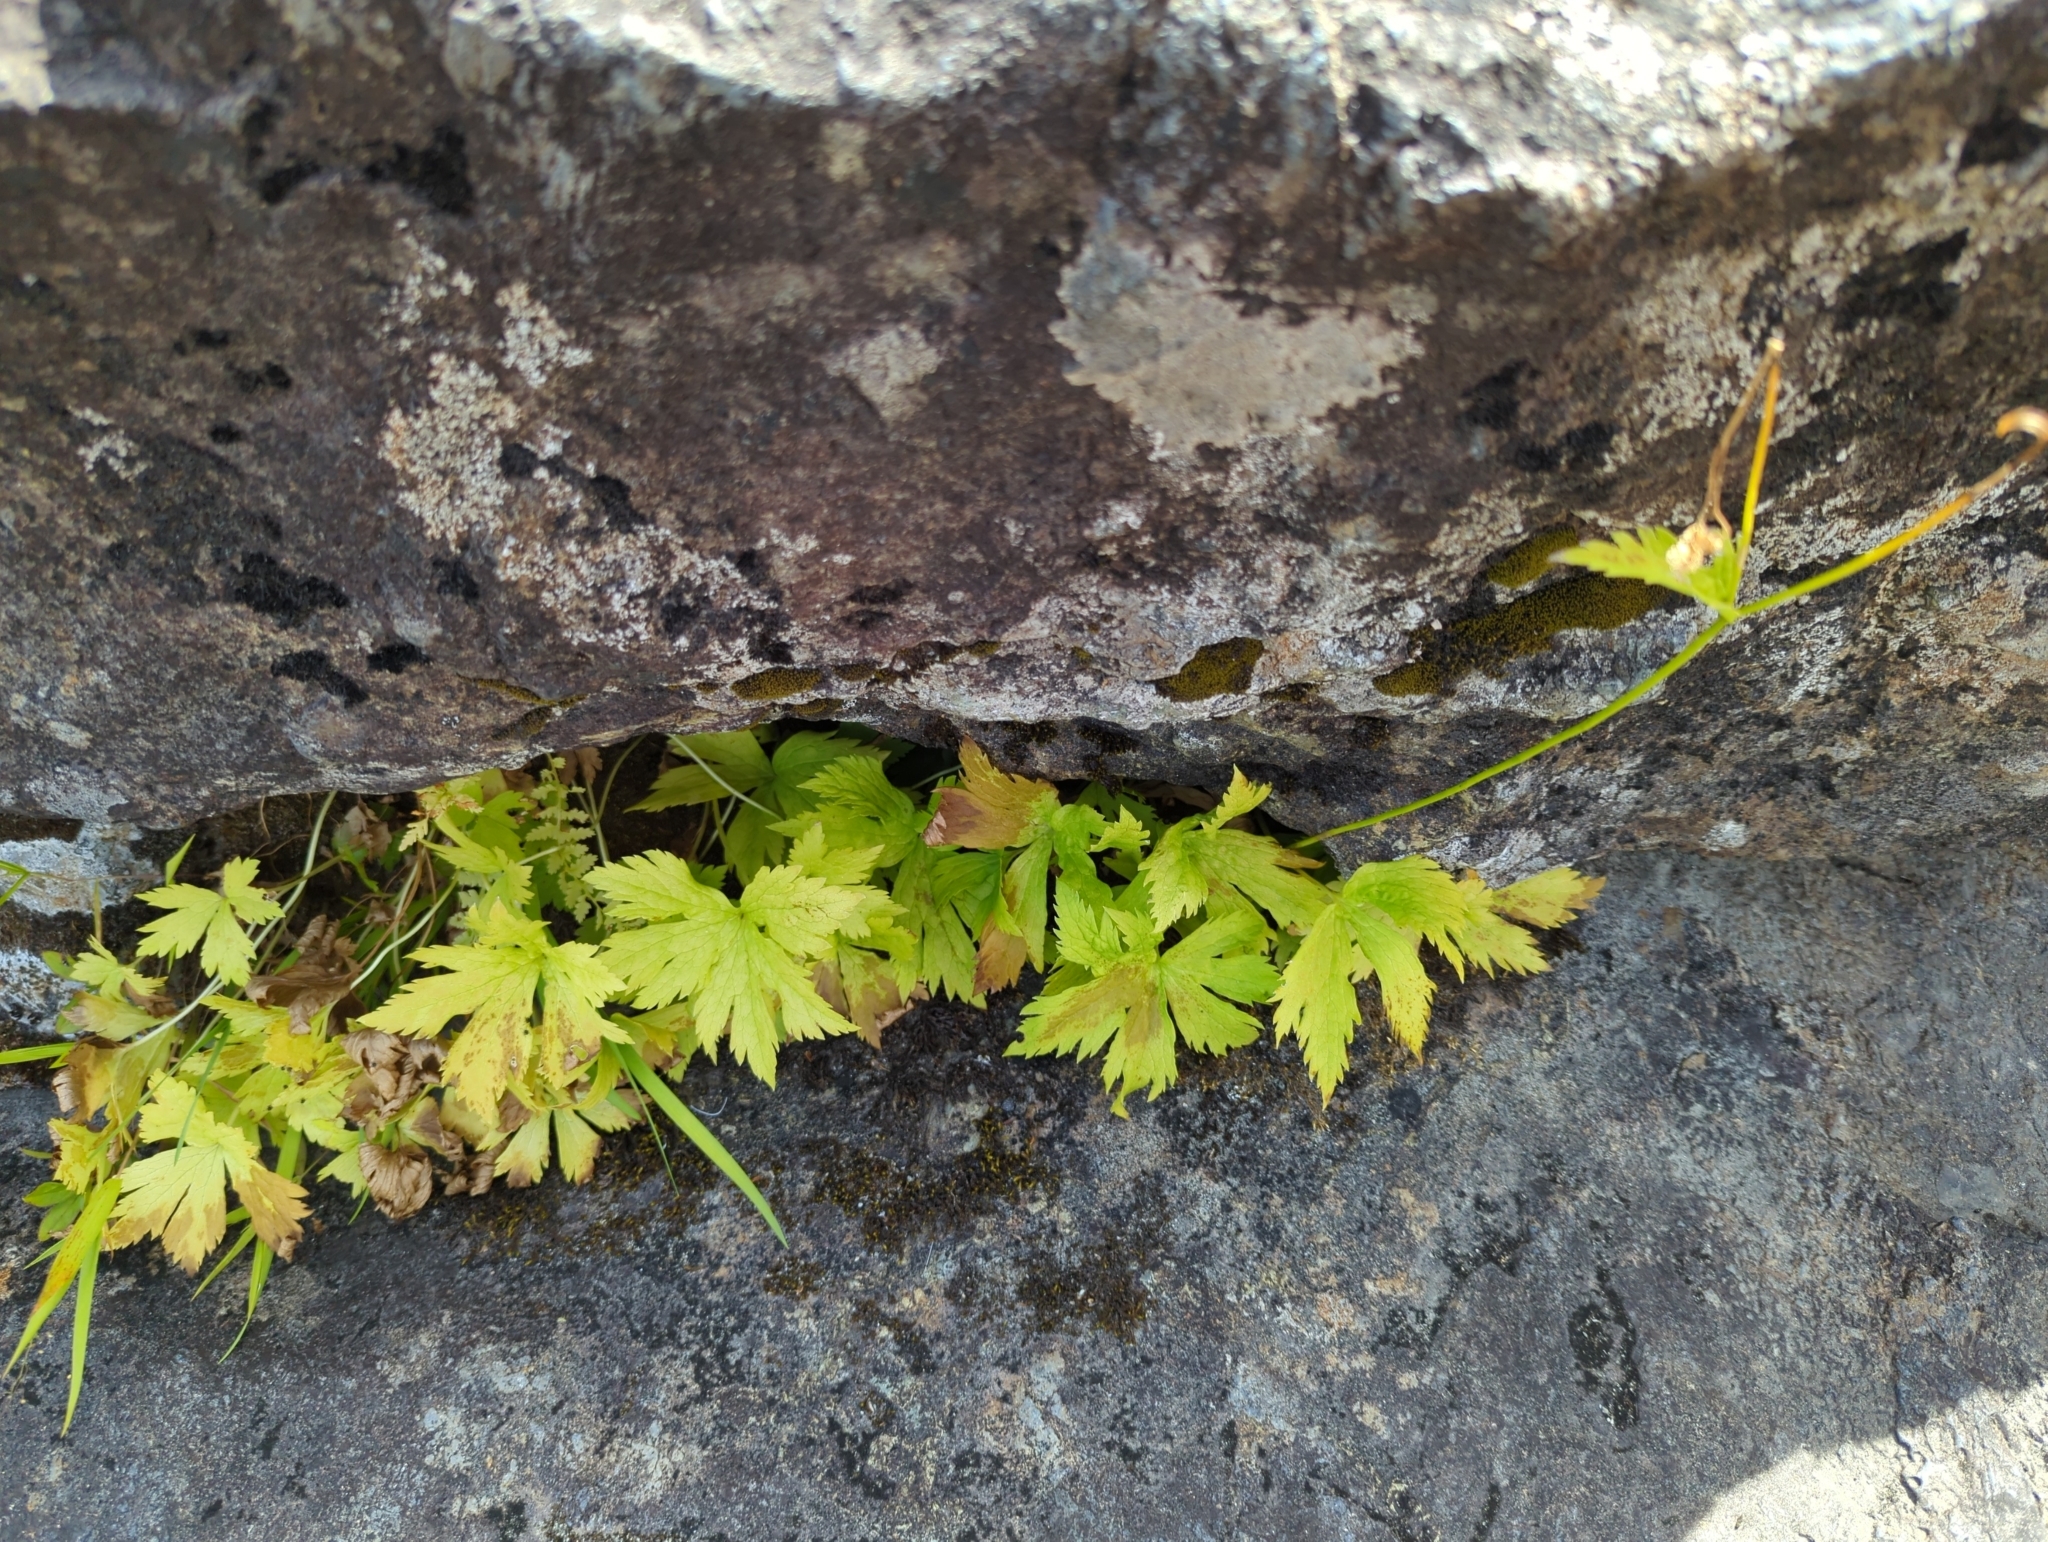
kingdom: Plantae
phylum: Tracheophyta
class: Magnoliopsida
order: Ranunculales
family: Ranunculaceae
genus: Trautvetteria
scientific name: Trautvetteria carolinensis
